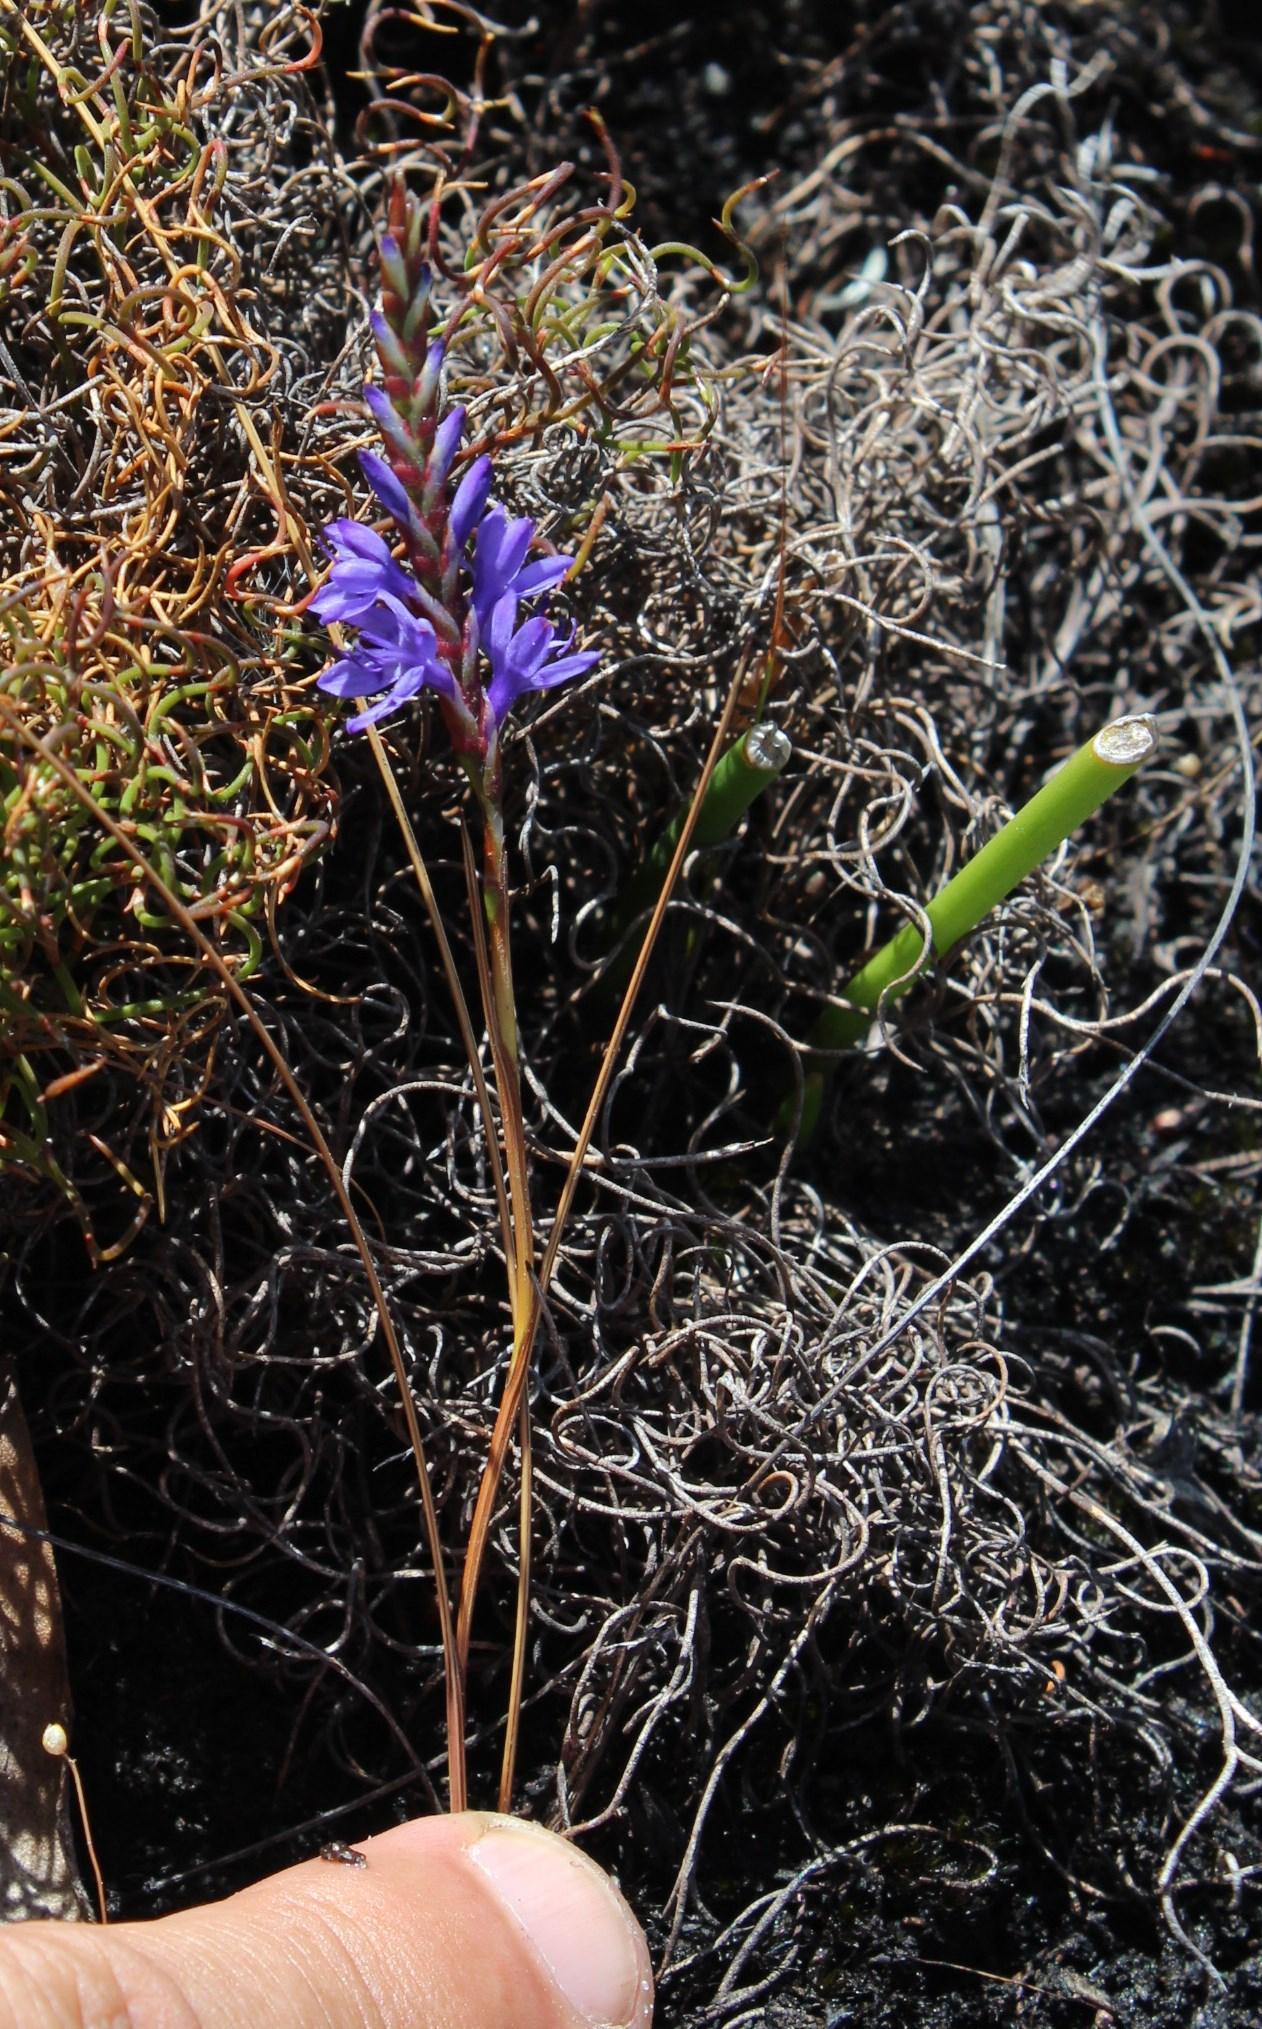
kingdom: Plantae
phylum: Tracheophyta
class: Liliopsida
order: Asparagales
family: Iridaceae
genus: Micranthus
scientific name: Micranthus plantagineus
